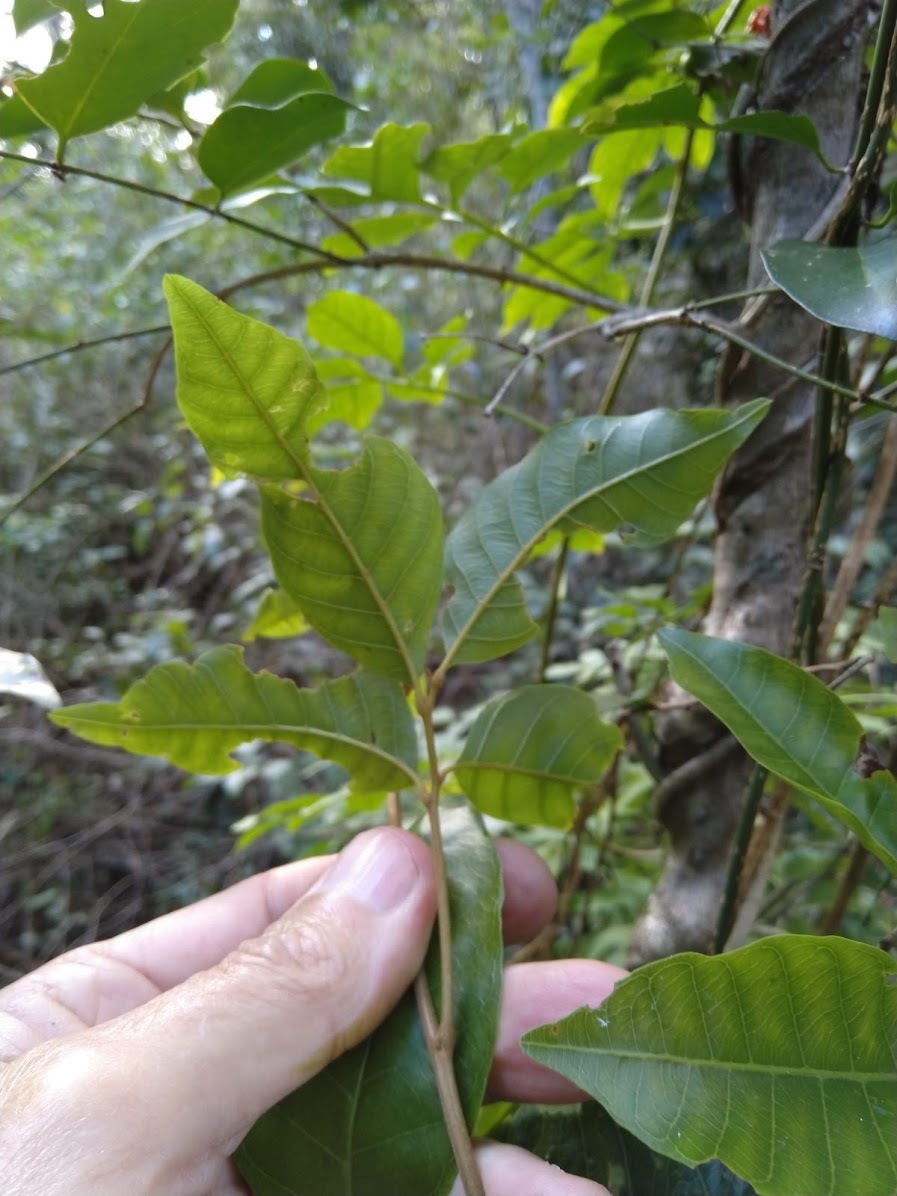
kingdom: Plantae
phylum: Tracheophyta
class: Magnoliopsida
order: Sapindales
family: Sapindaceae
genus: Arytera
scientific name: Arytera divaricata
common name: Coogera
